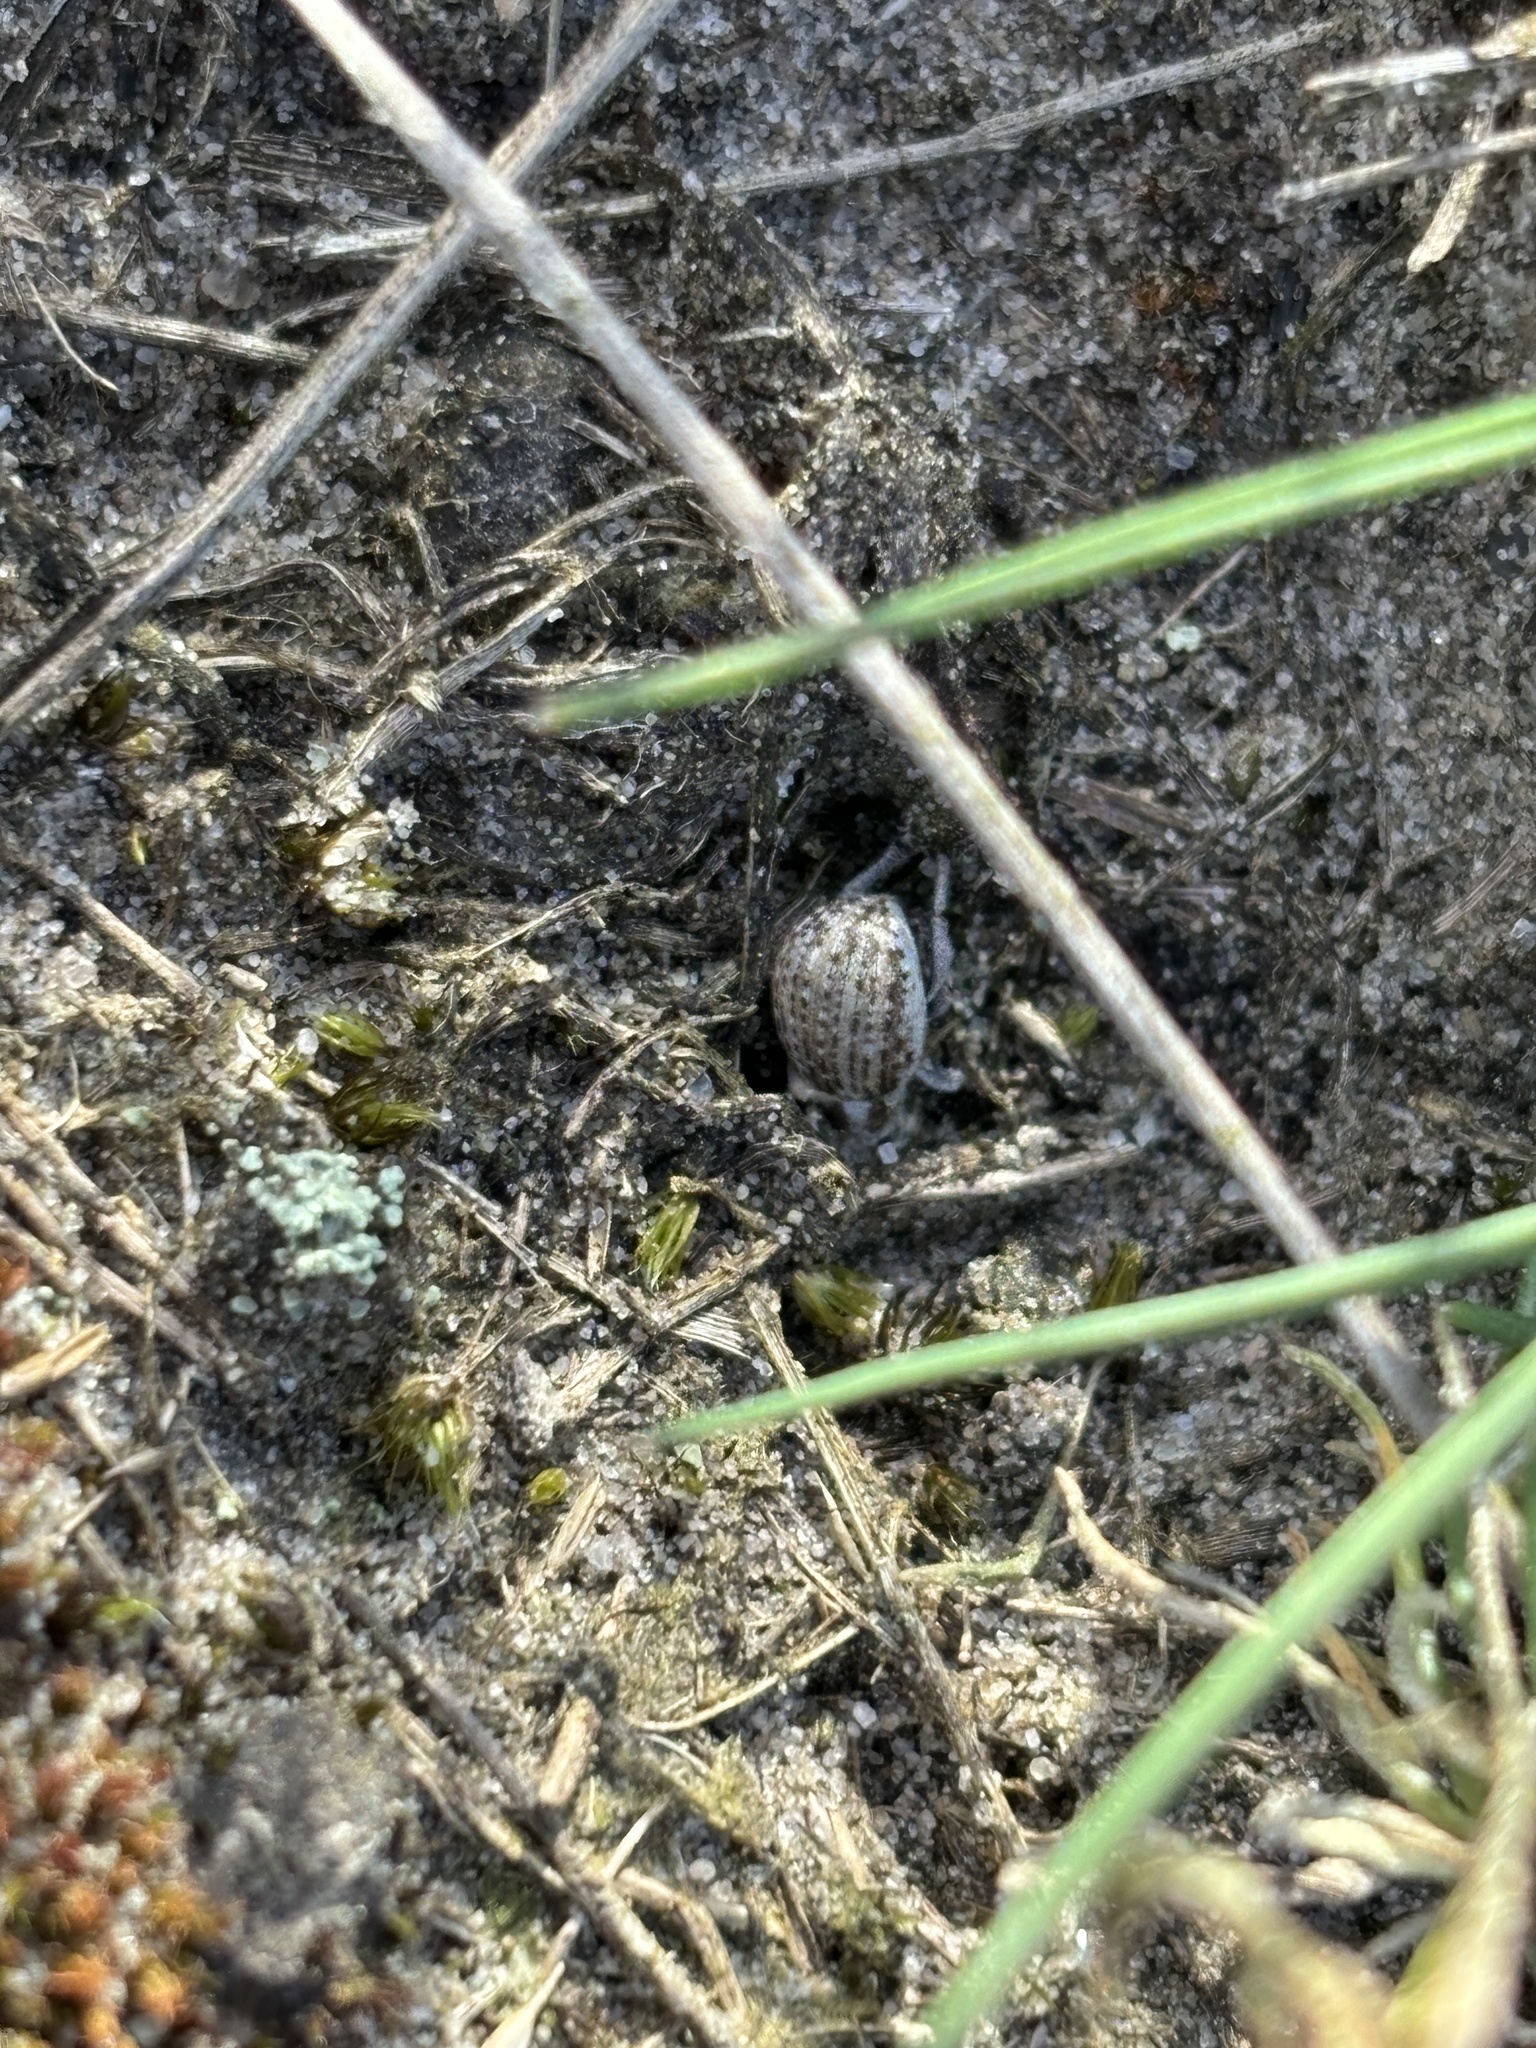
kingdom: Animalia
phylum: Arthropoda
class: Insecta
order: Coleoptera
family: Curculionidae
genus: Philopedon
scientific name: Philopedon plagiatum
